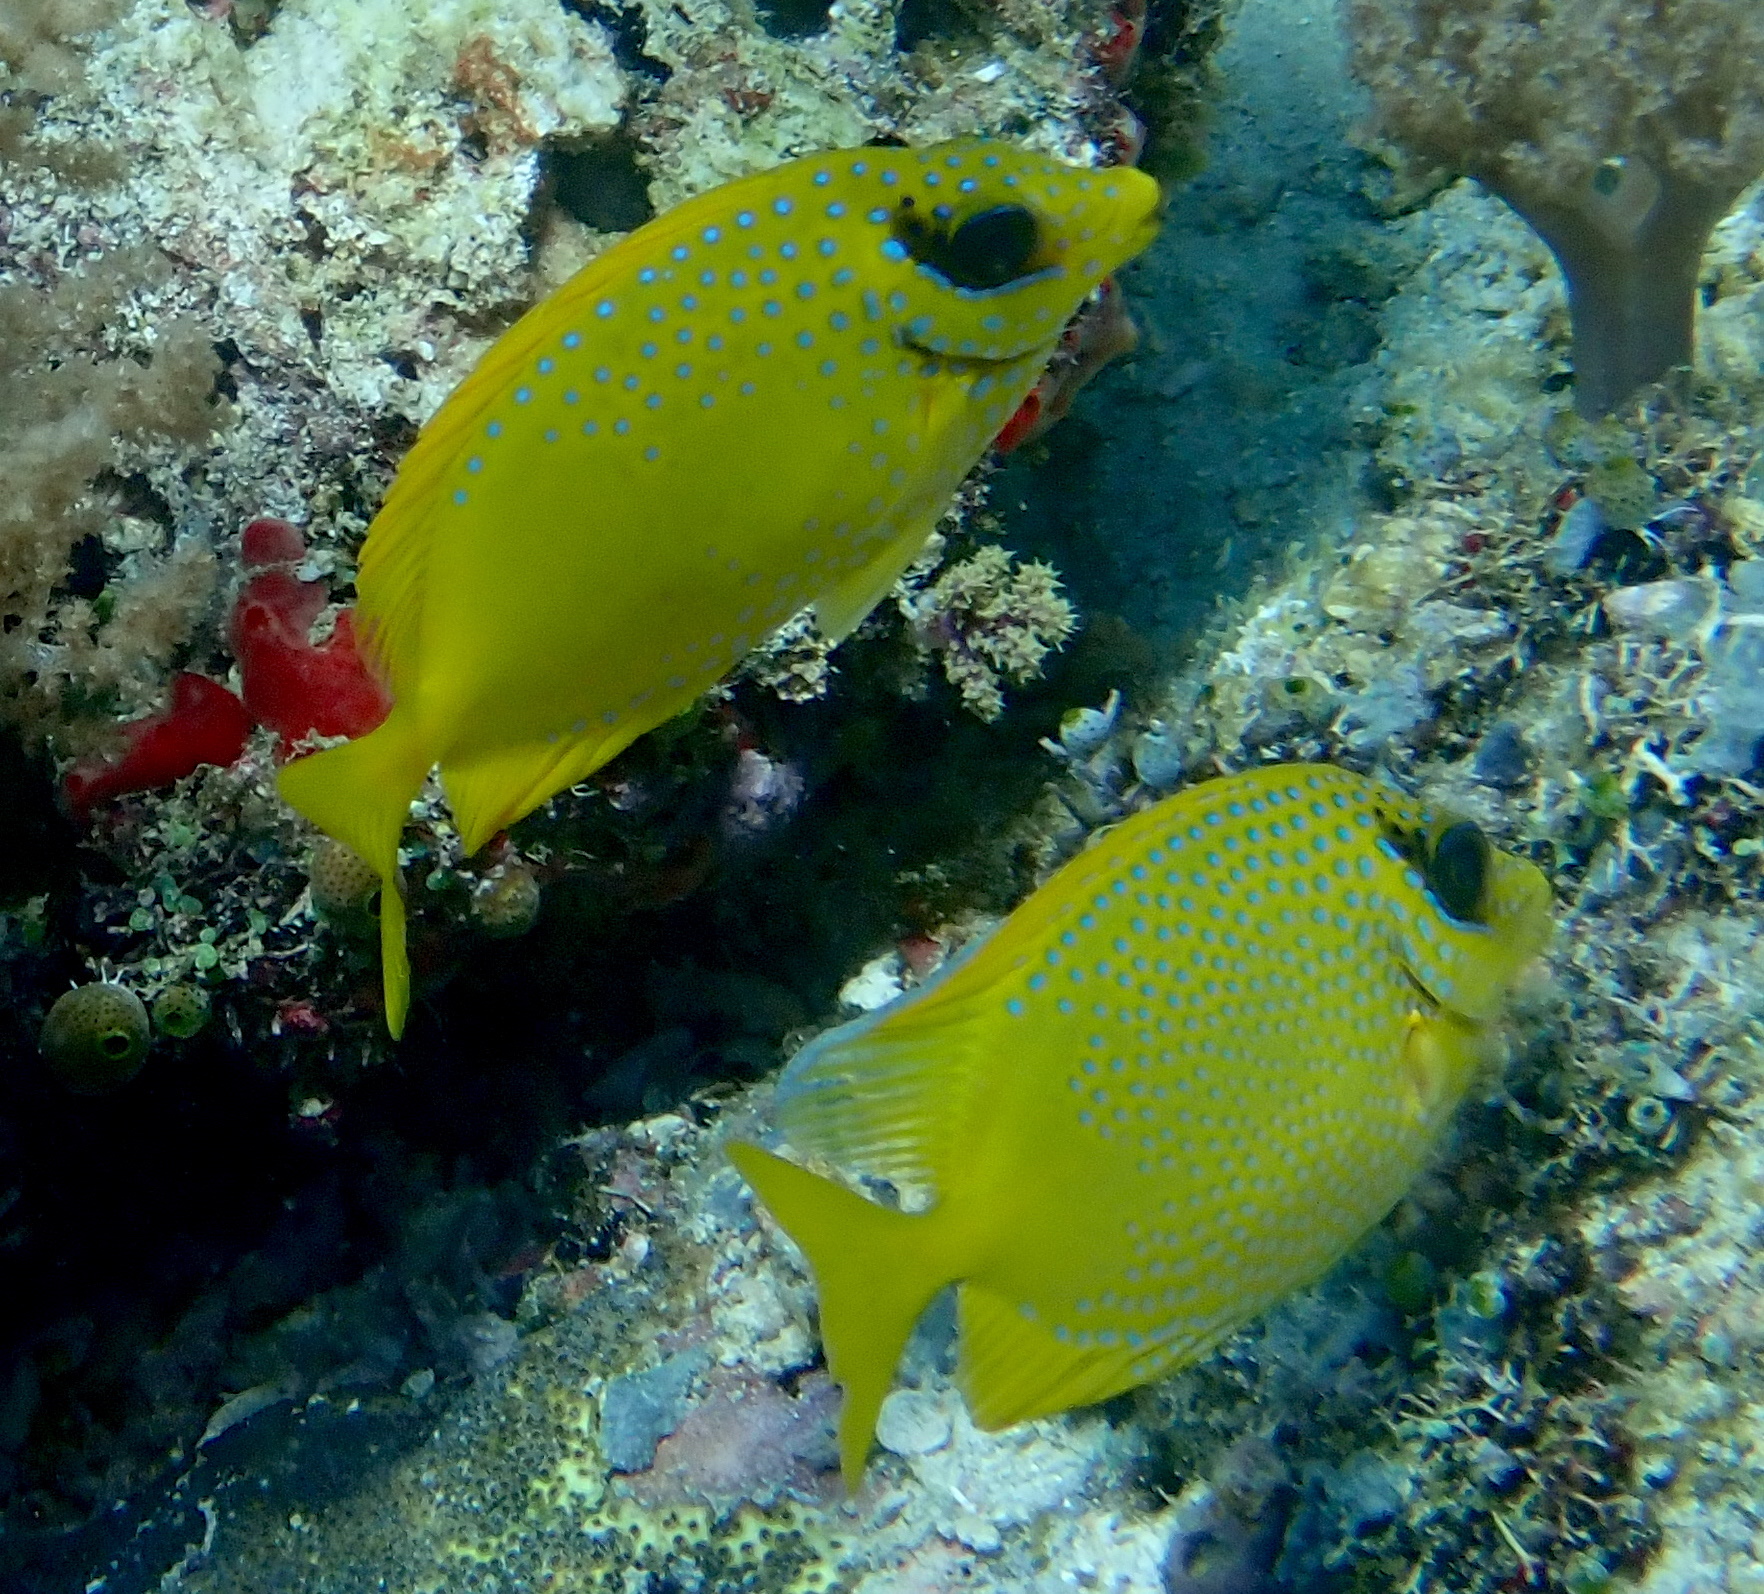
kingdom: Animalia
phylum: Chordata
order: Perciformes
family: Siganidae
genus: Siganus
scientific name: Siganus corallinus
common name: Coral rabbitfish
